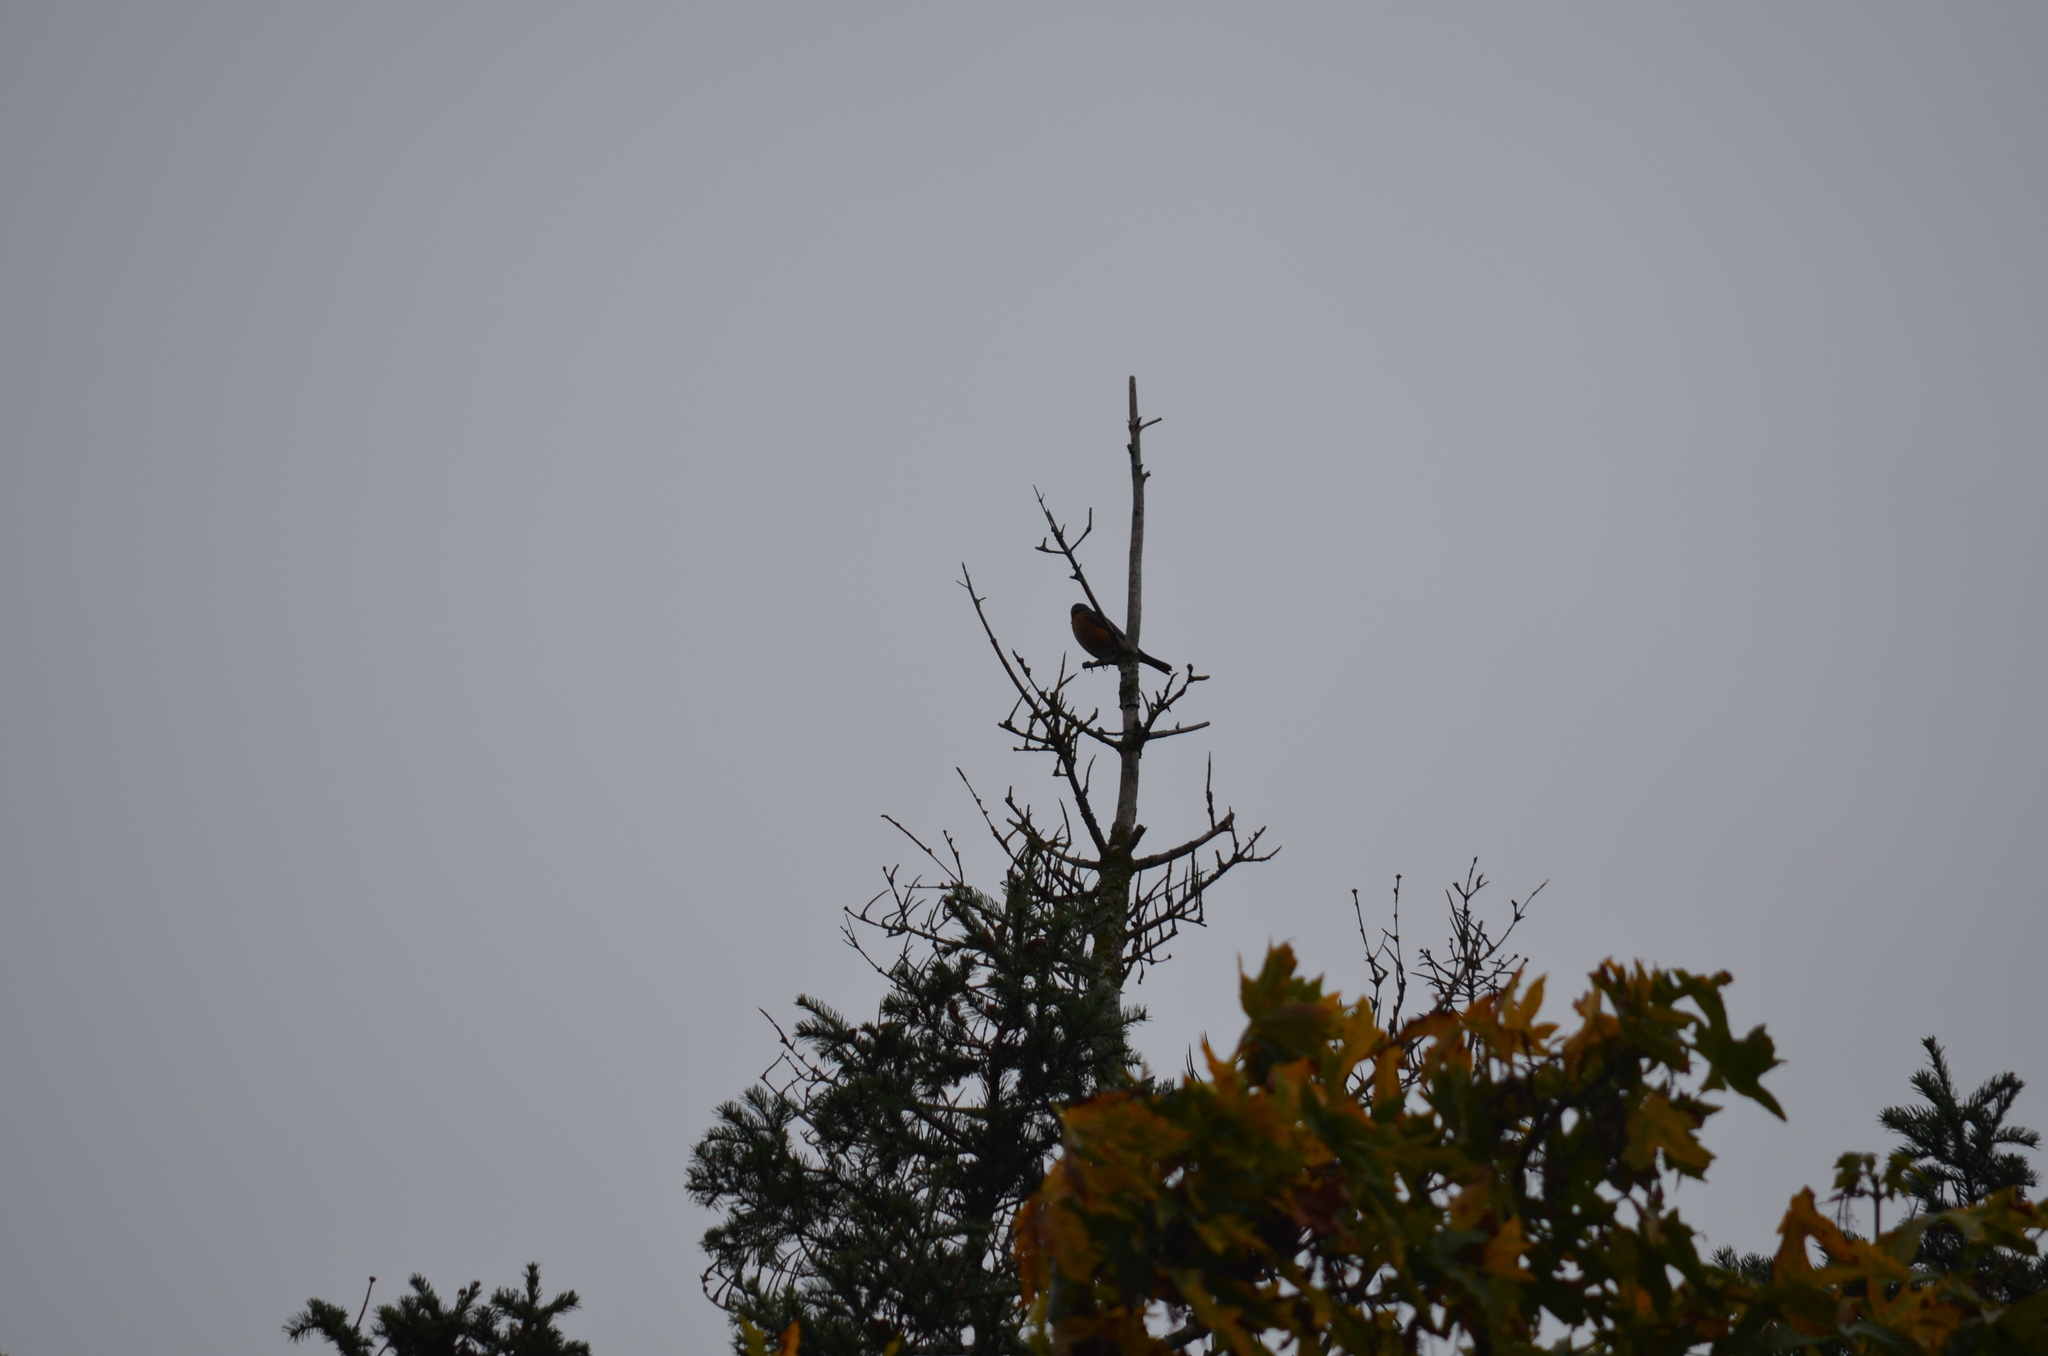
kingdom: Animalia
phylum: Chordata
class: Aves
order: Passeriformes
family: Turdidae
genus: Turdus
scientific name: Turdus migratorius
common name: American robin
